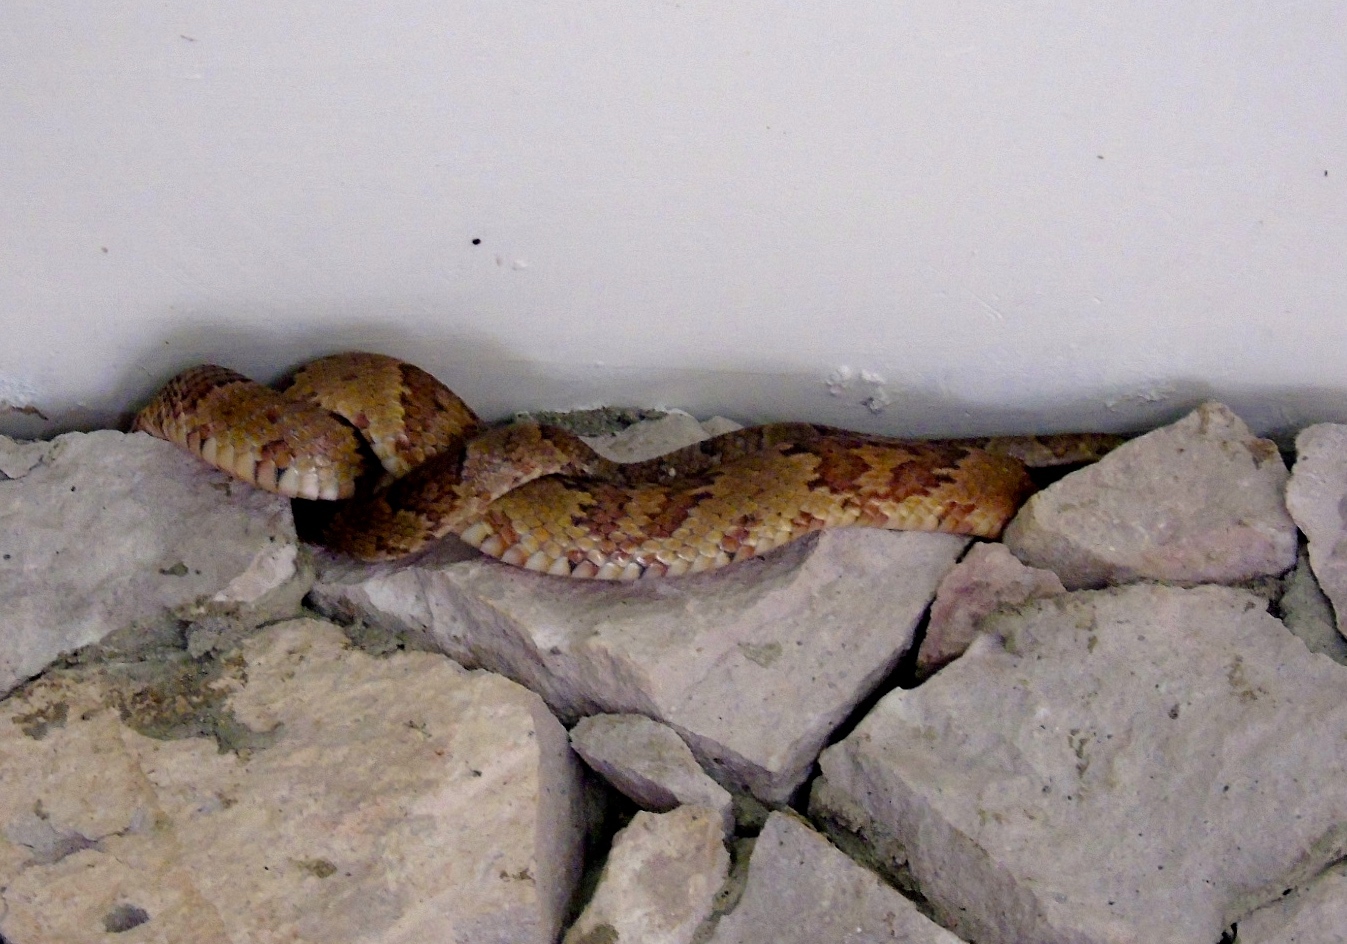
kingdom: Animalia
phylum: Chordata
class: Squamata
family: Colubridae
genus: Trimorphodon
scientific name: Trimorphodon paucimaculatus
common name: Sinaloan lyresnake
